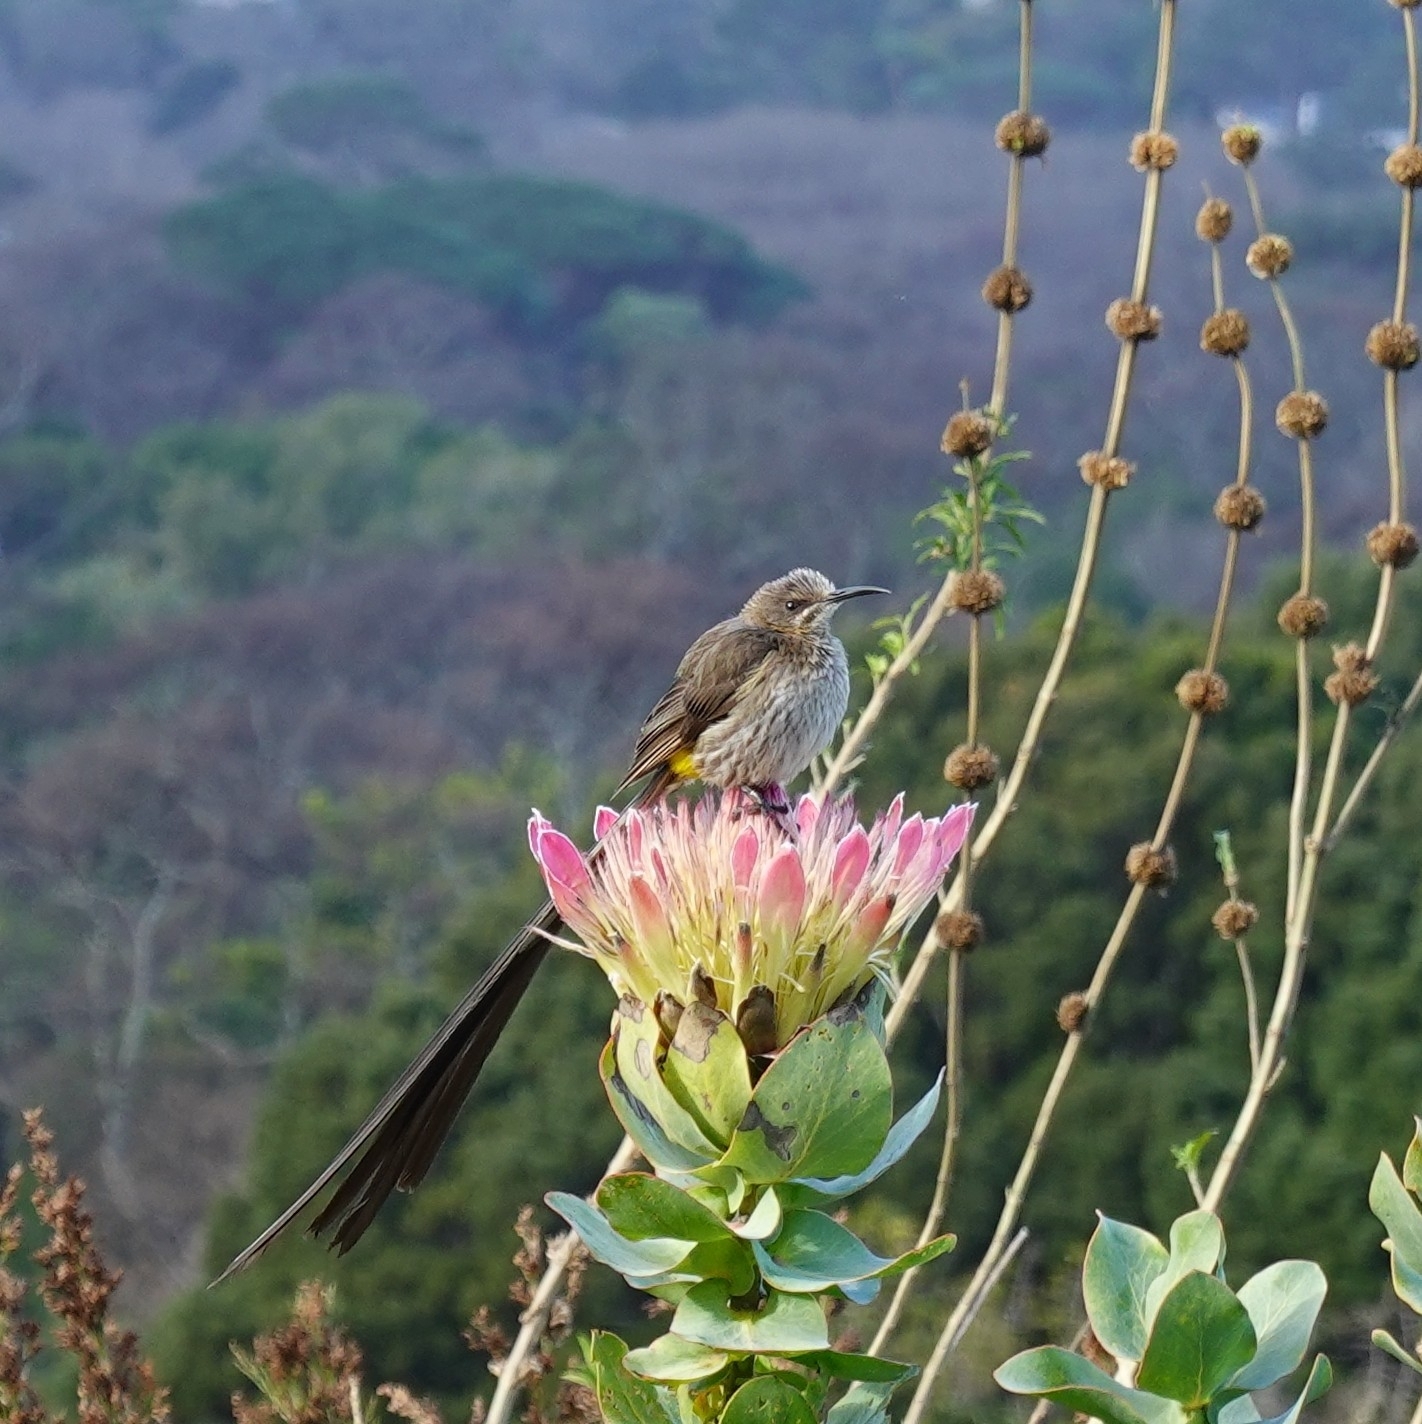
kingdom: Animalia
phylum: Chordata
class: Aves
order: Passeriformes
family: Promeropidae
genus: Promerops
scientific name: Promerops cafer
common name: Cape sugarbird
